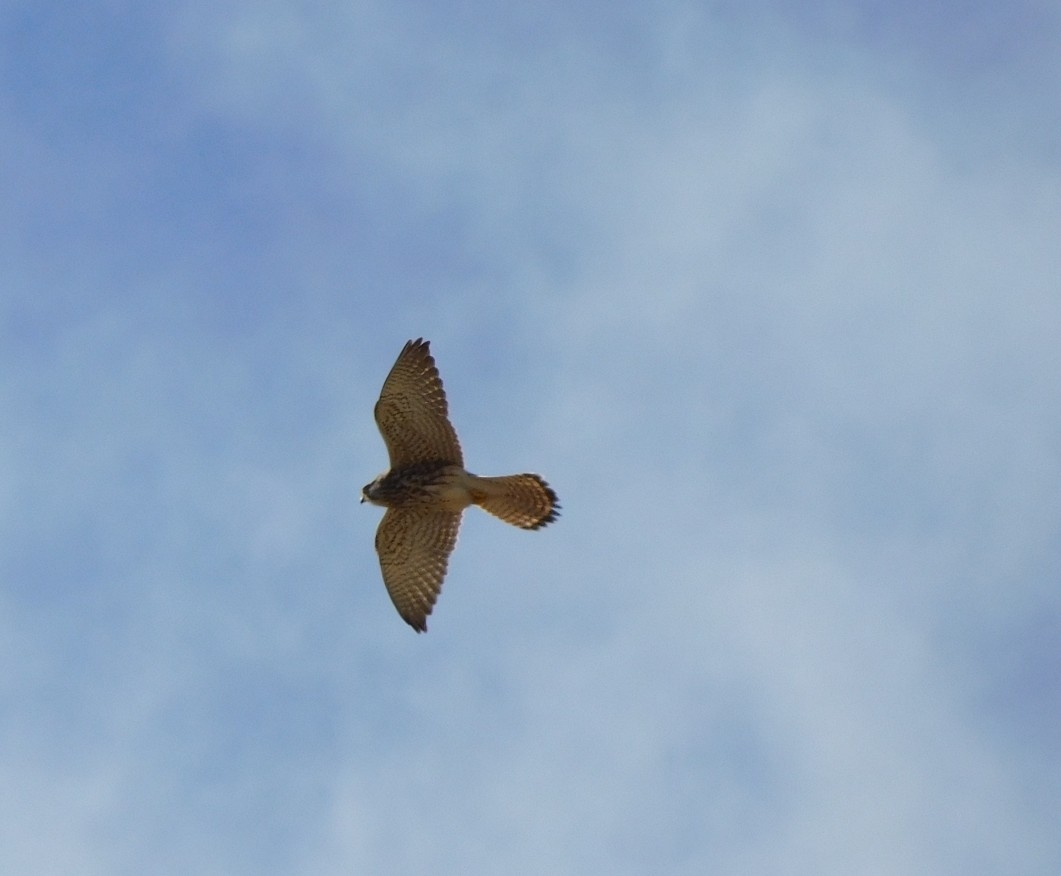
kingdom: Animalia
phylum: Chordata
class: Aves
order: Falconiformes
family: Falconidae
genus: Falco
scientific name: Falco tinnunculus
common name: Common kestrel
